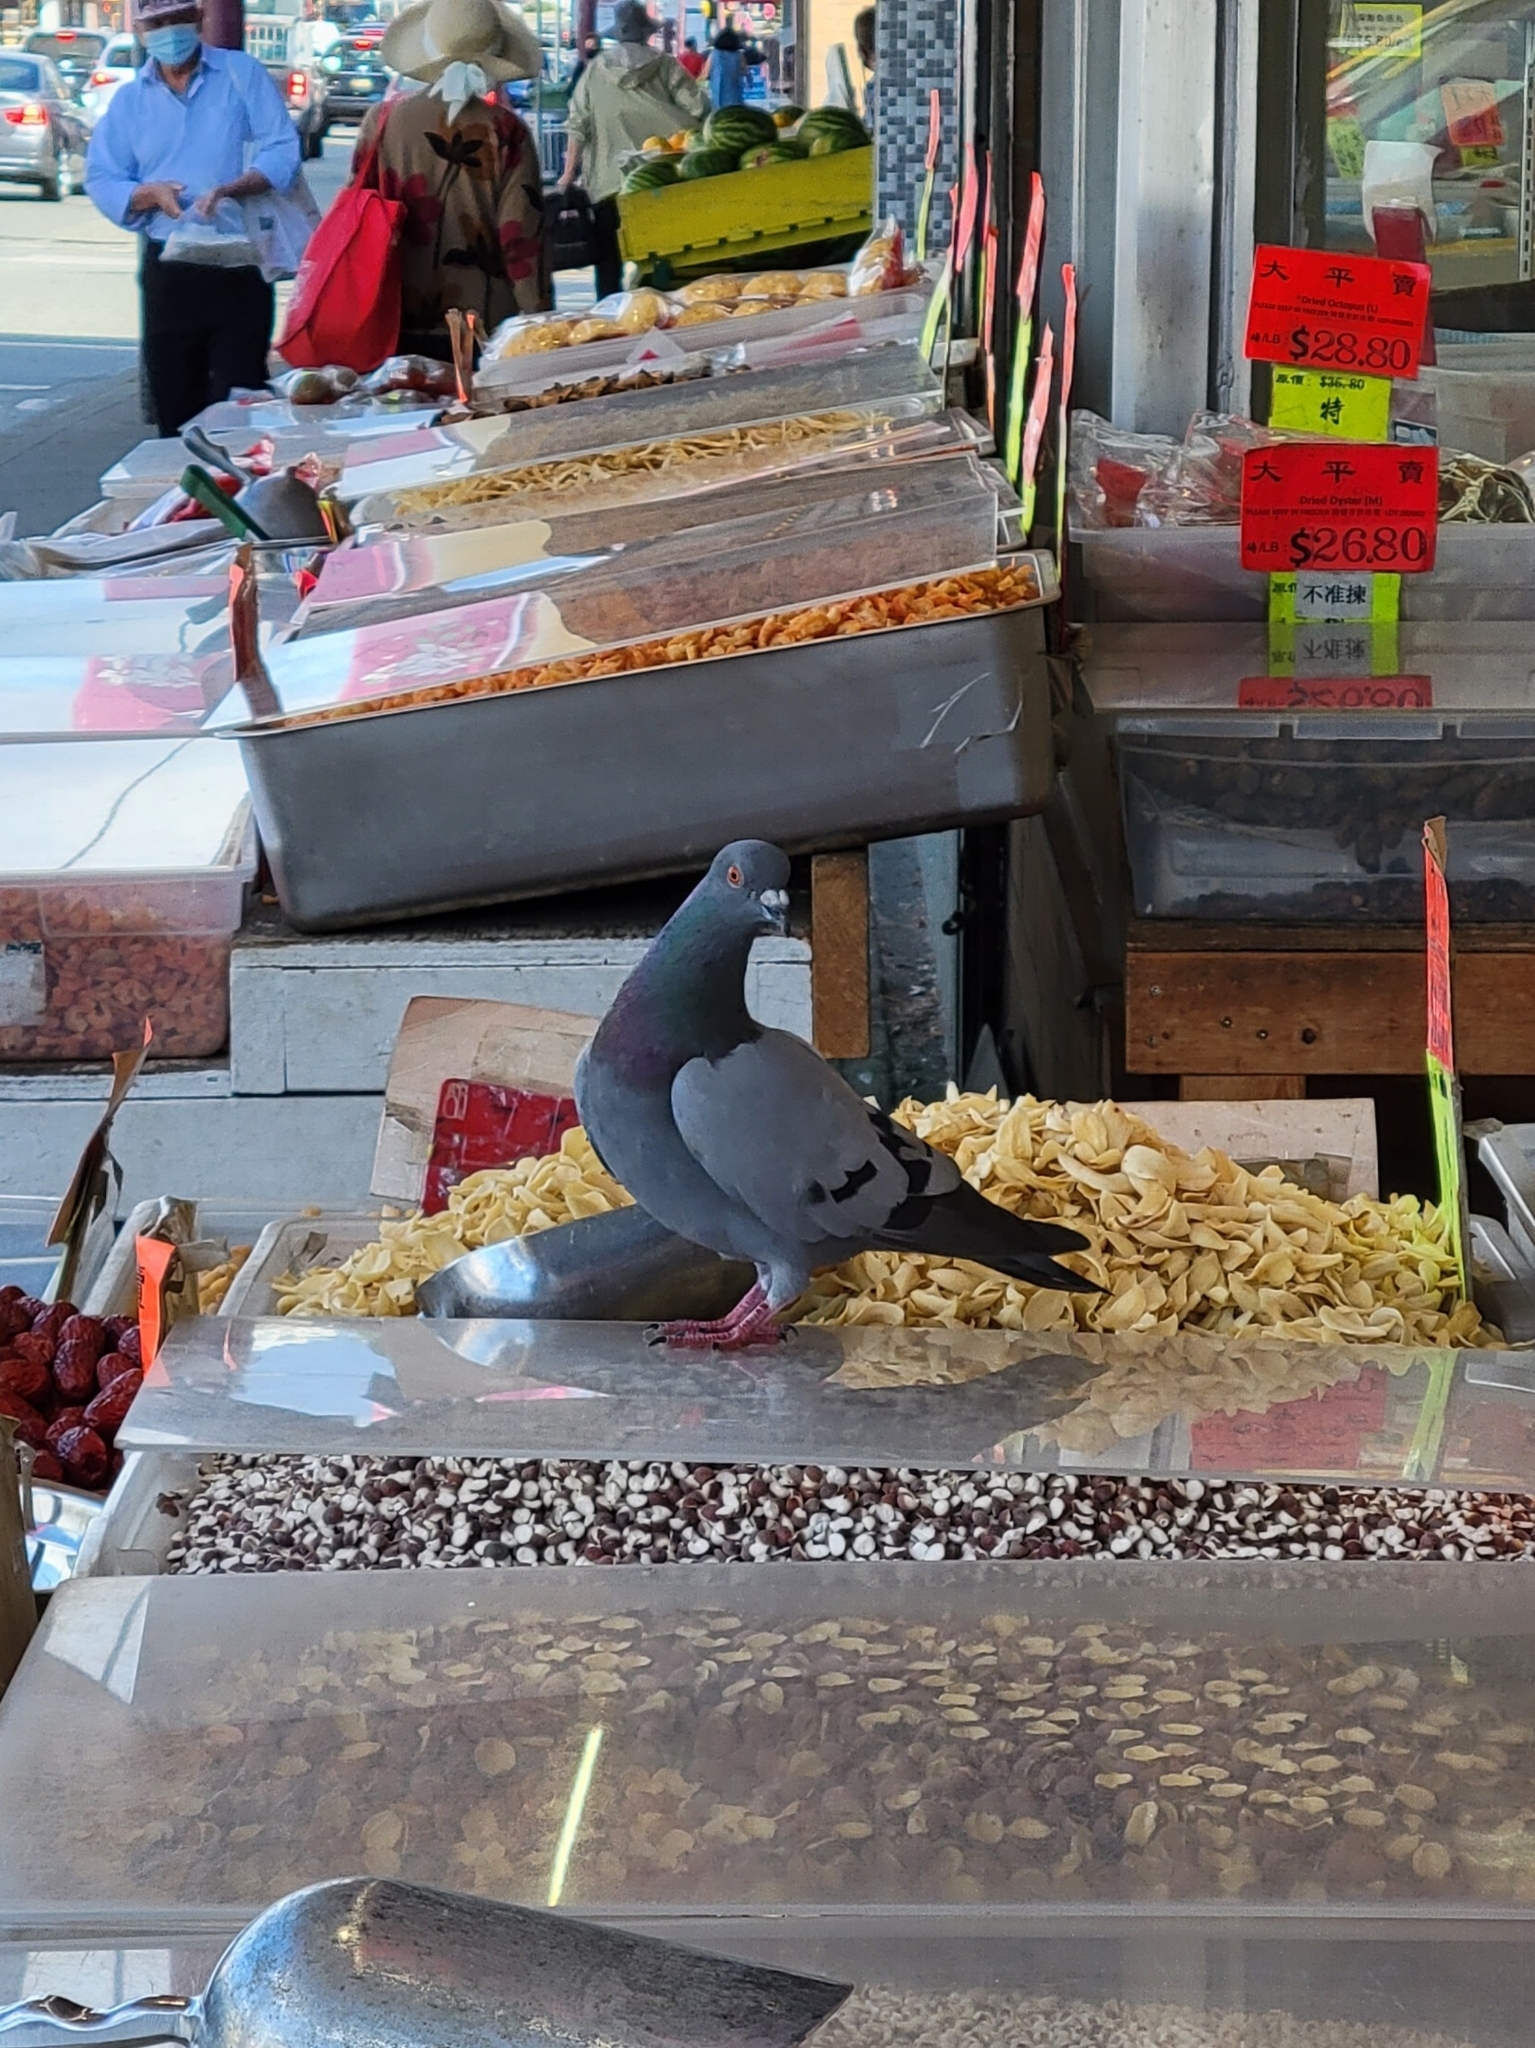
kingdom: Animalia
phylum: Chordata
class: Aves
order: Columbiformes
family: Columbidae
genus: Columba
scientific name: Columba livia
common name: Rock pigeon
